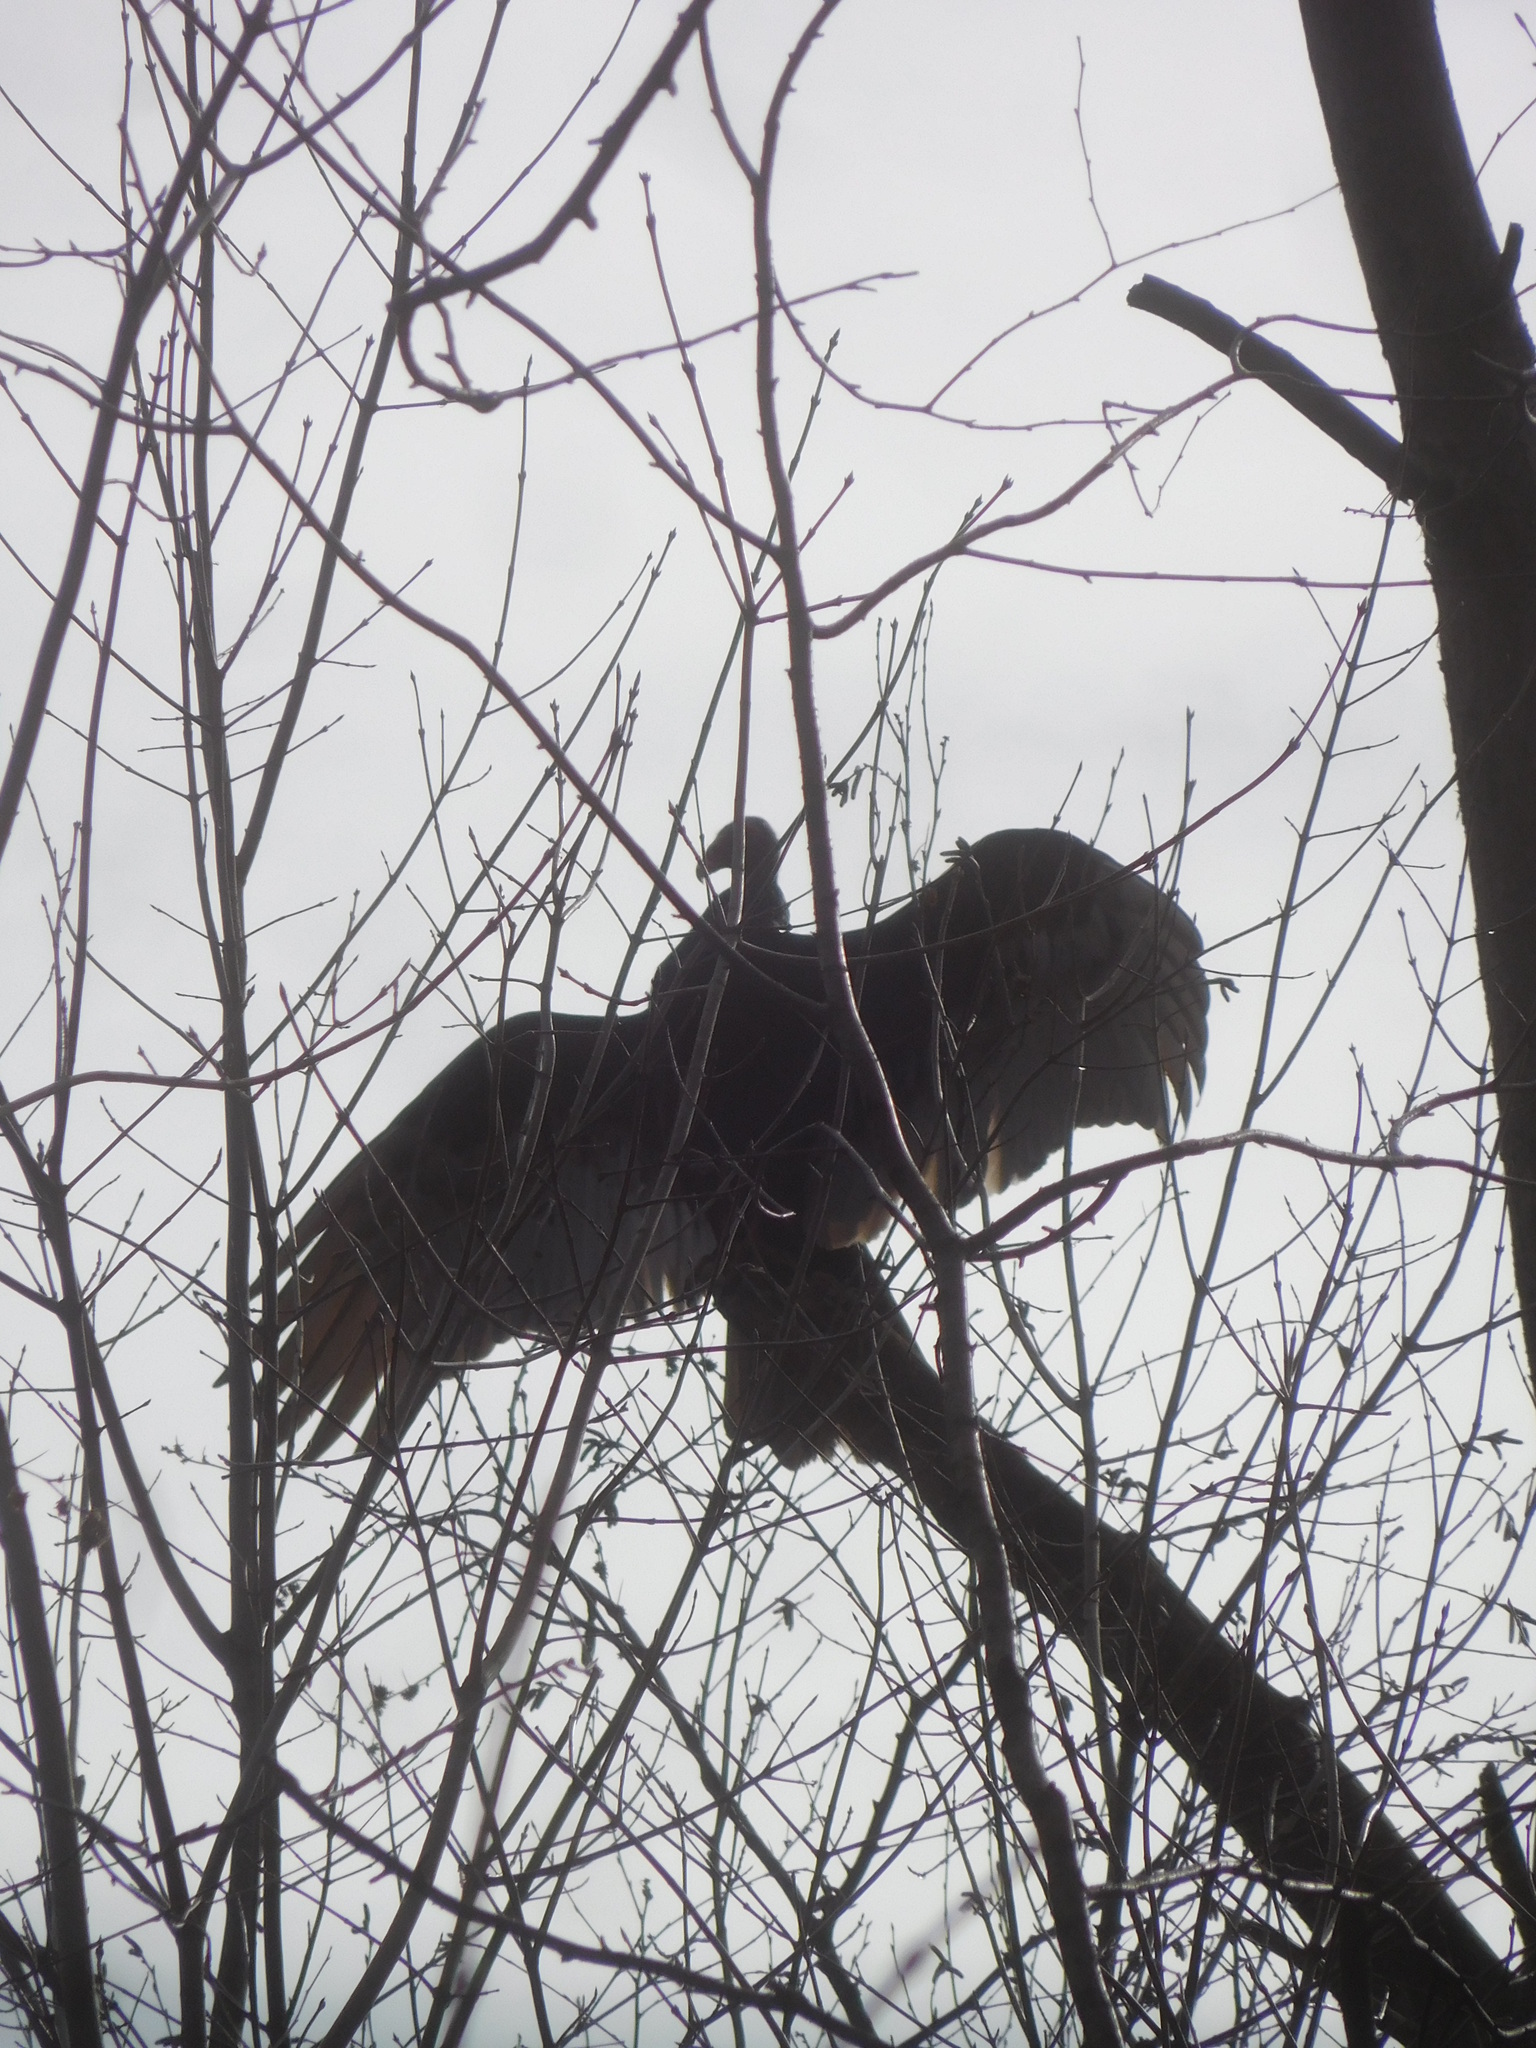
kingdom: Animalia
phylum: Chordata
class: Aves
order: Accipitriformes
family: Cathartidae
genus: Cathartes
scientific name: Cathartes aura
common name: Turkey vulture
